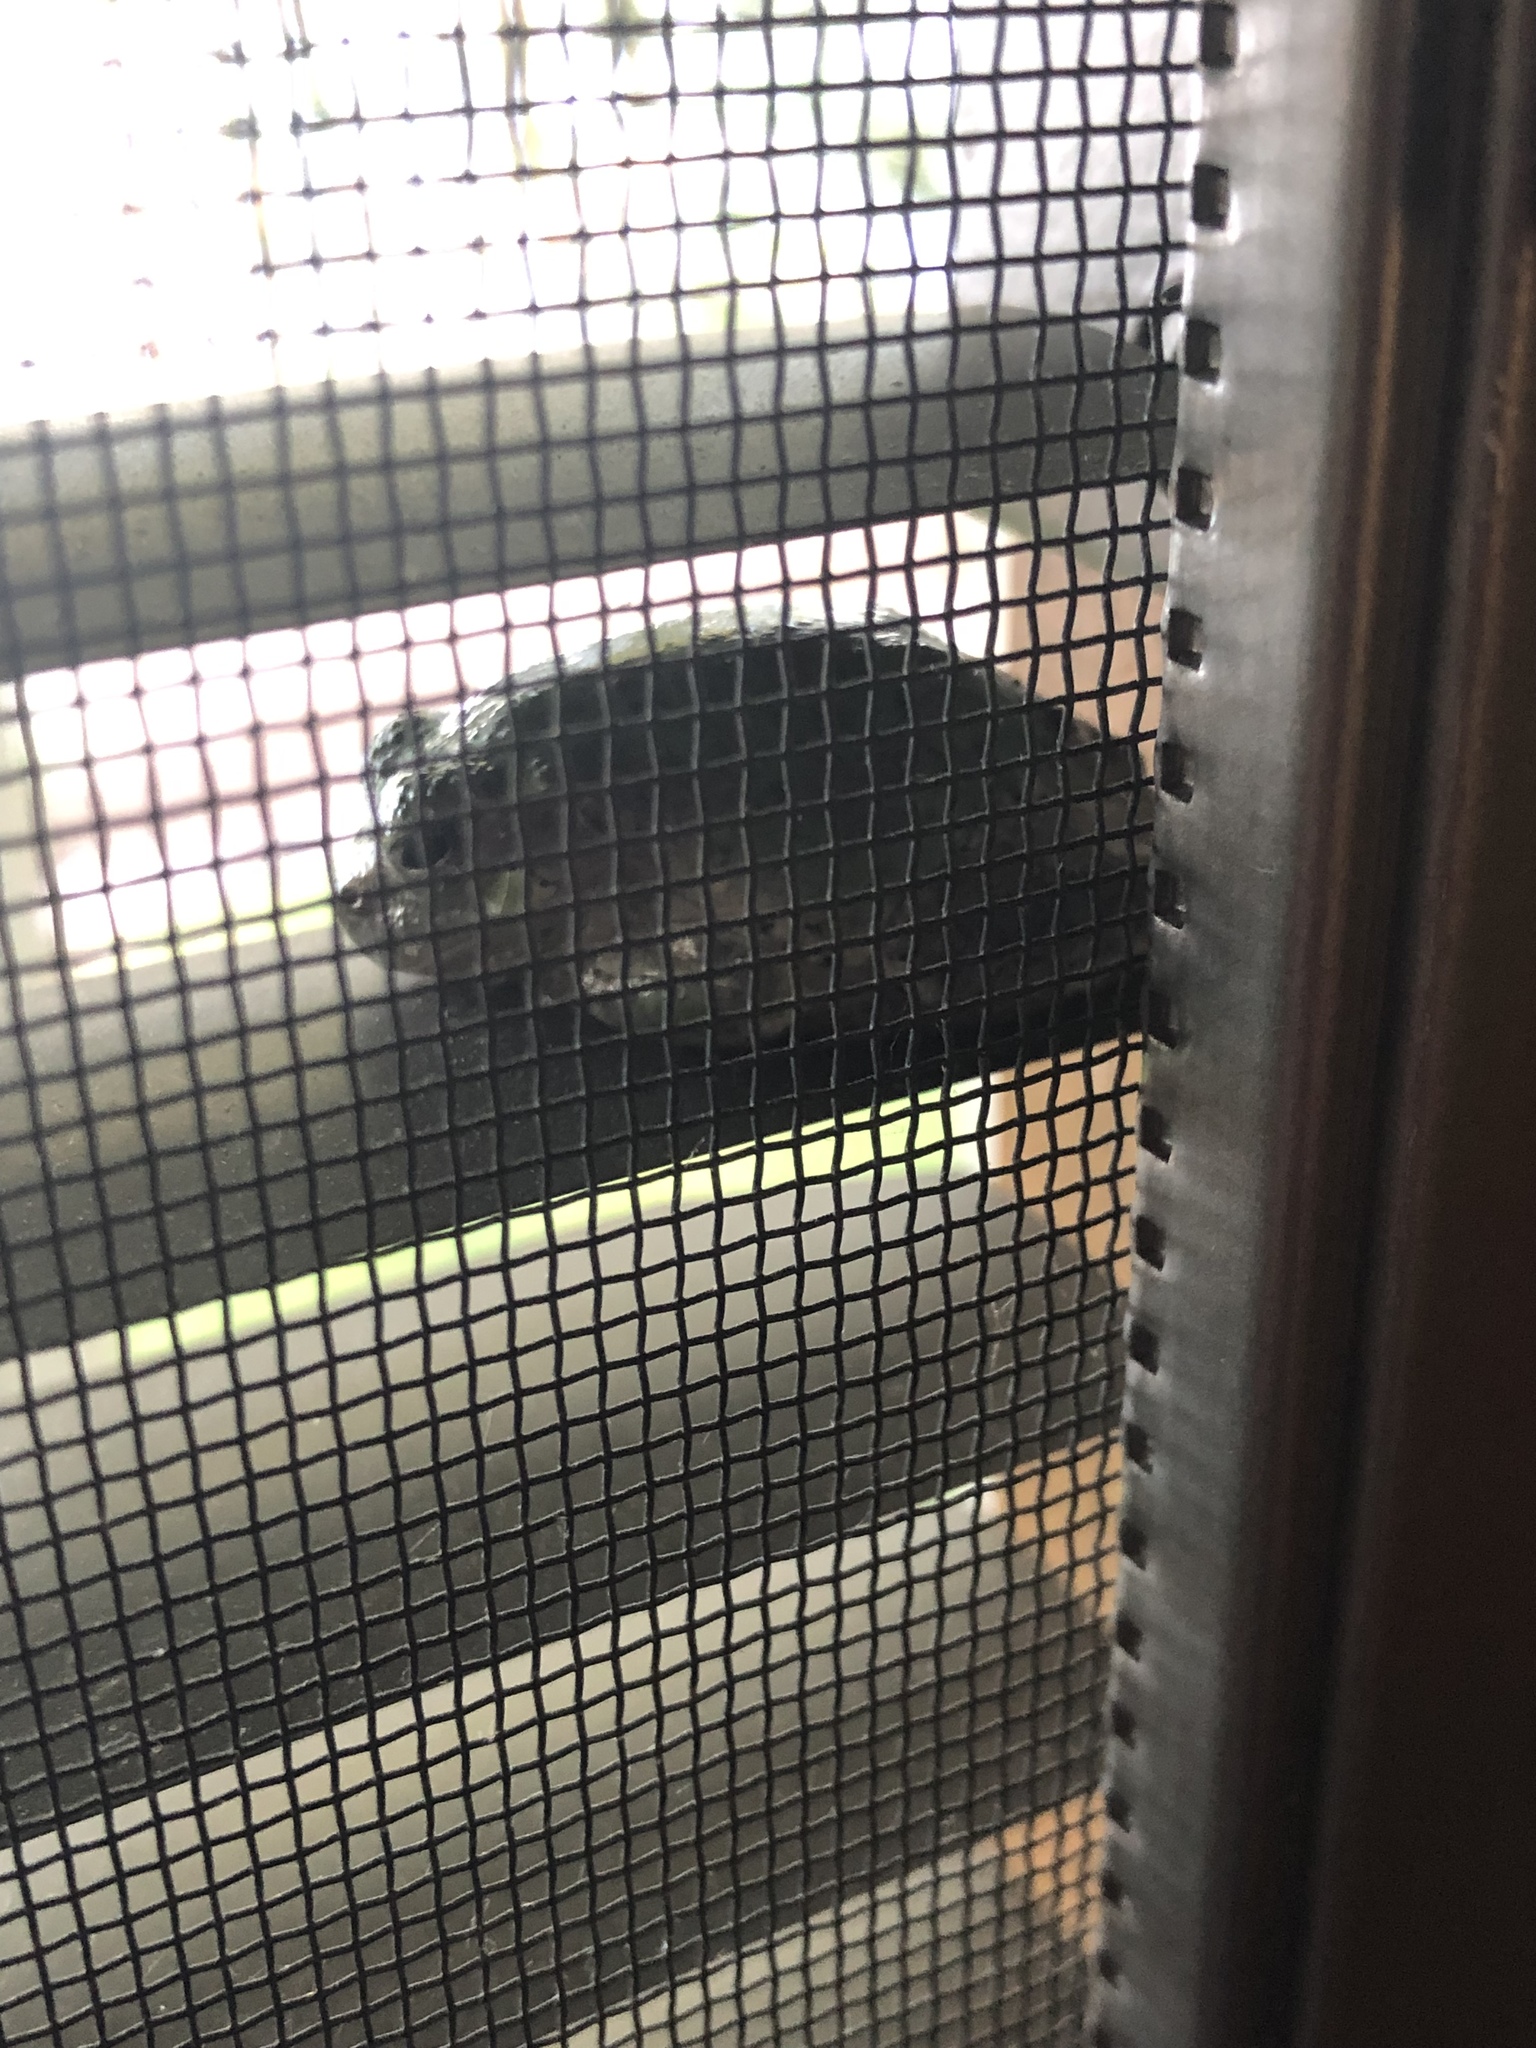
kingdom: Animalia
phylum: Chordata
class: Amphibia
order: Anura
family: Hylidae
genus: Hyla
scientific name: Hyla
